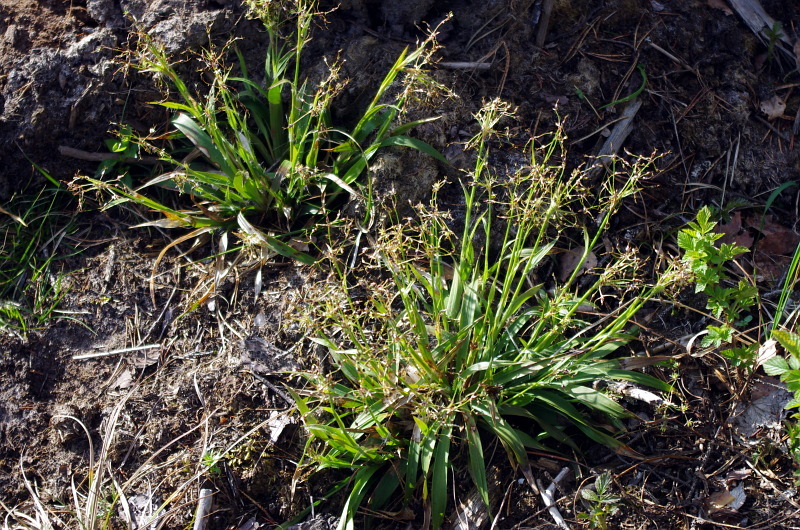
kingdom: Plantae
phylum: Tracheophyta
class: Liliopsida
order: Poales
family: Juncaceae
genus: Luzula
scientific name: Luzula pilosa
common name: Hairy wood-rush
